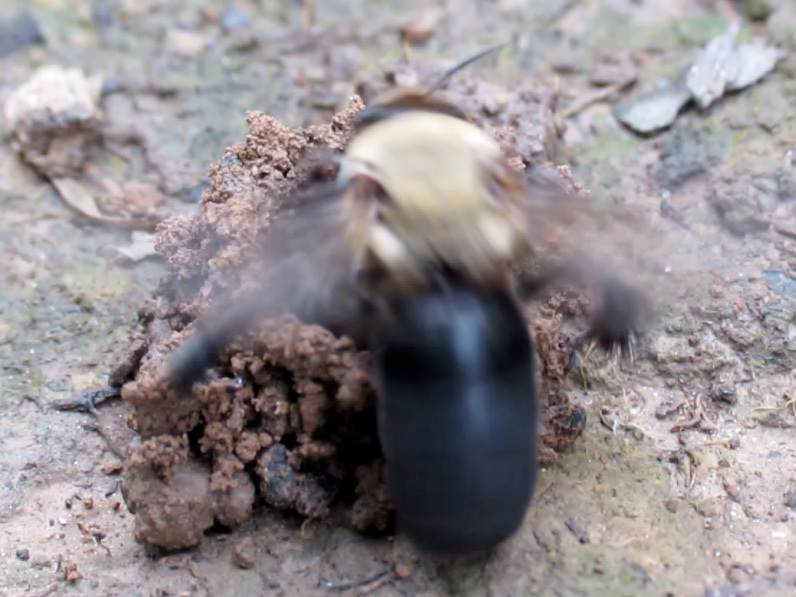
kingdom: Animalia
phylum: Arthropoda
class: Insecta
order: Hymenoptera
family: Apidae
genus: Ptilothrix
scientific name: Ptilothrix bombiformis
